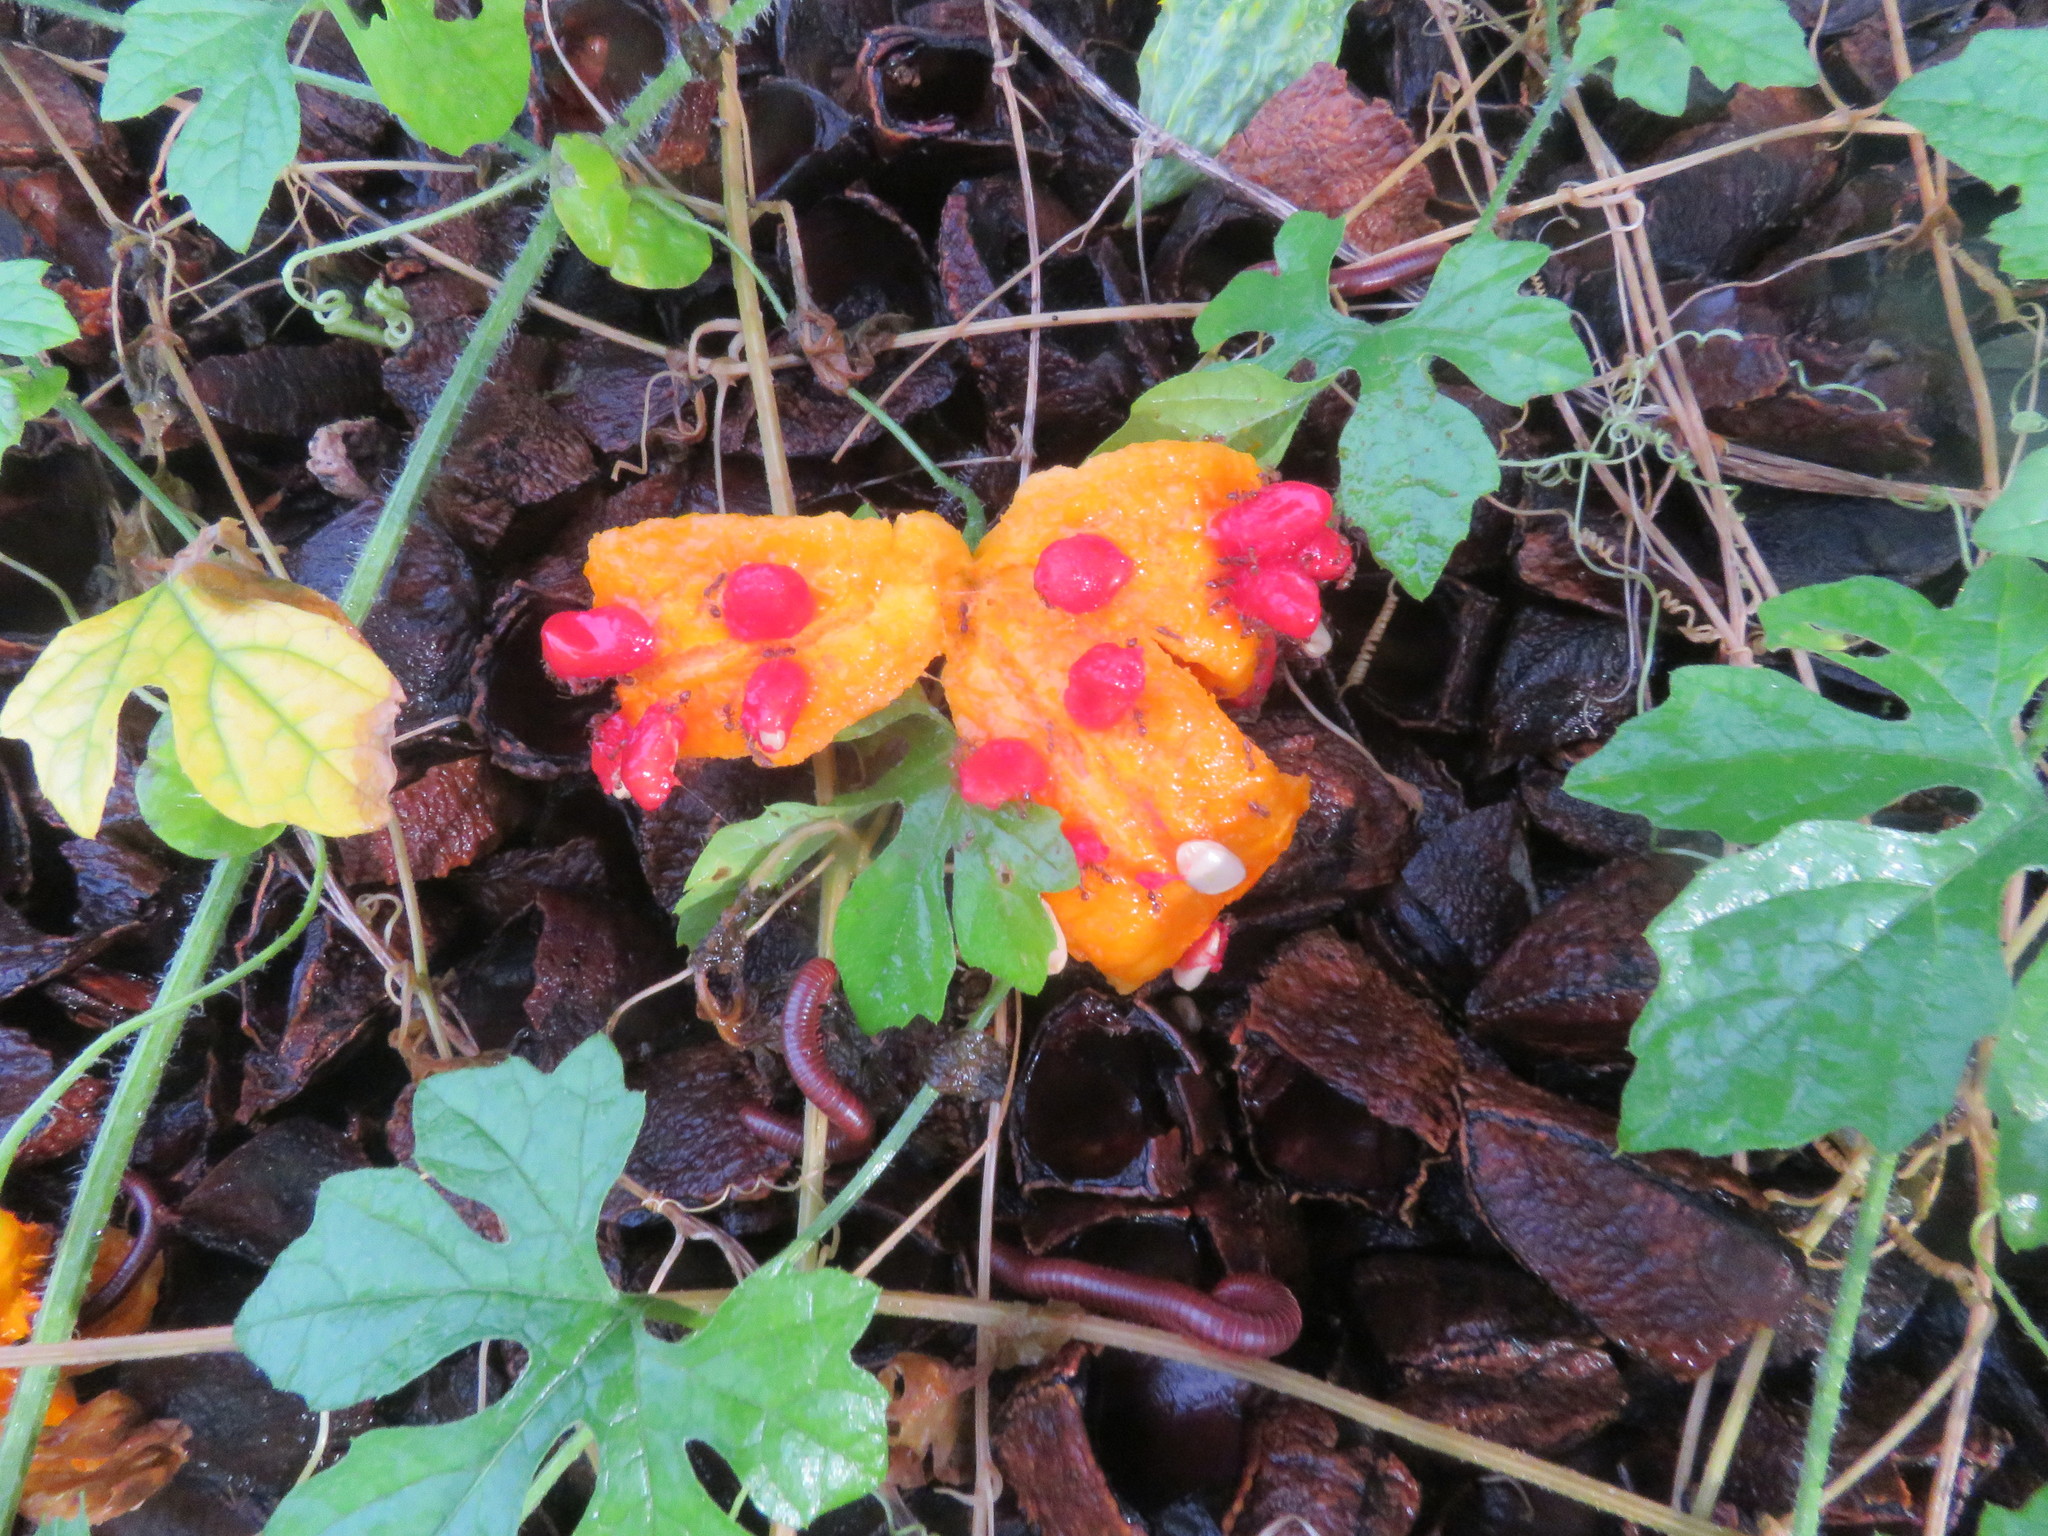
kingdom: Plantae
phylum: Tracheophyta
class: Magnoliopsida
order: Cucurbitales
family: Cucurbitaceae
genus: Momordica
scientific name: Momordica charantia
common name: Balsampear
